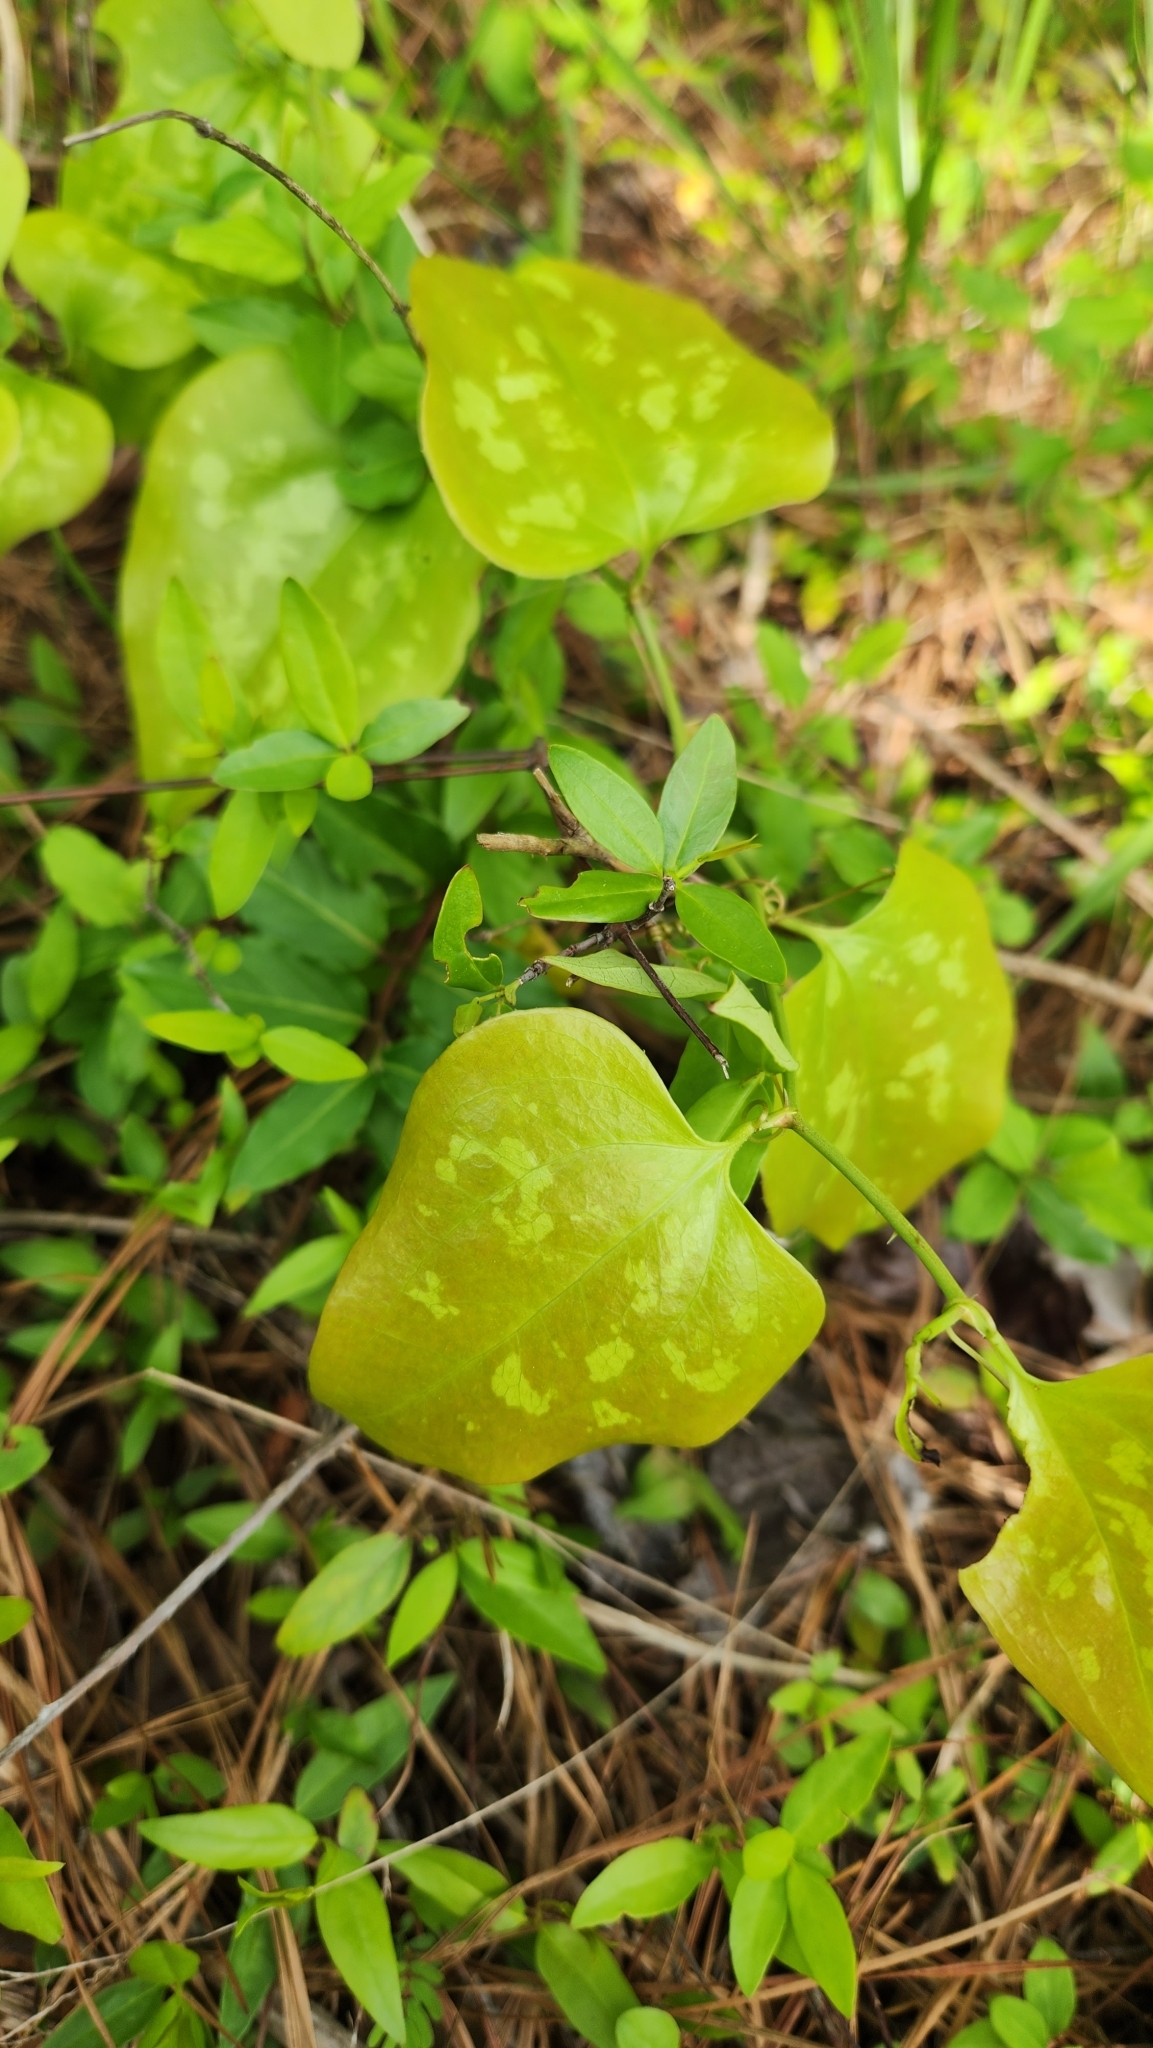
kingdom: Plantae
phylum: Tracheophyta
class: Liliopsida
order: Liliales
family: Smilacaceae
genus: Smilax
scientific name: Smilax bona-nox
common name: Catbrier
